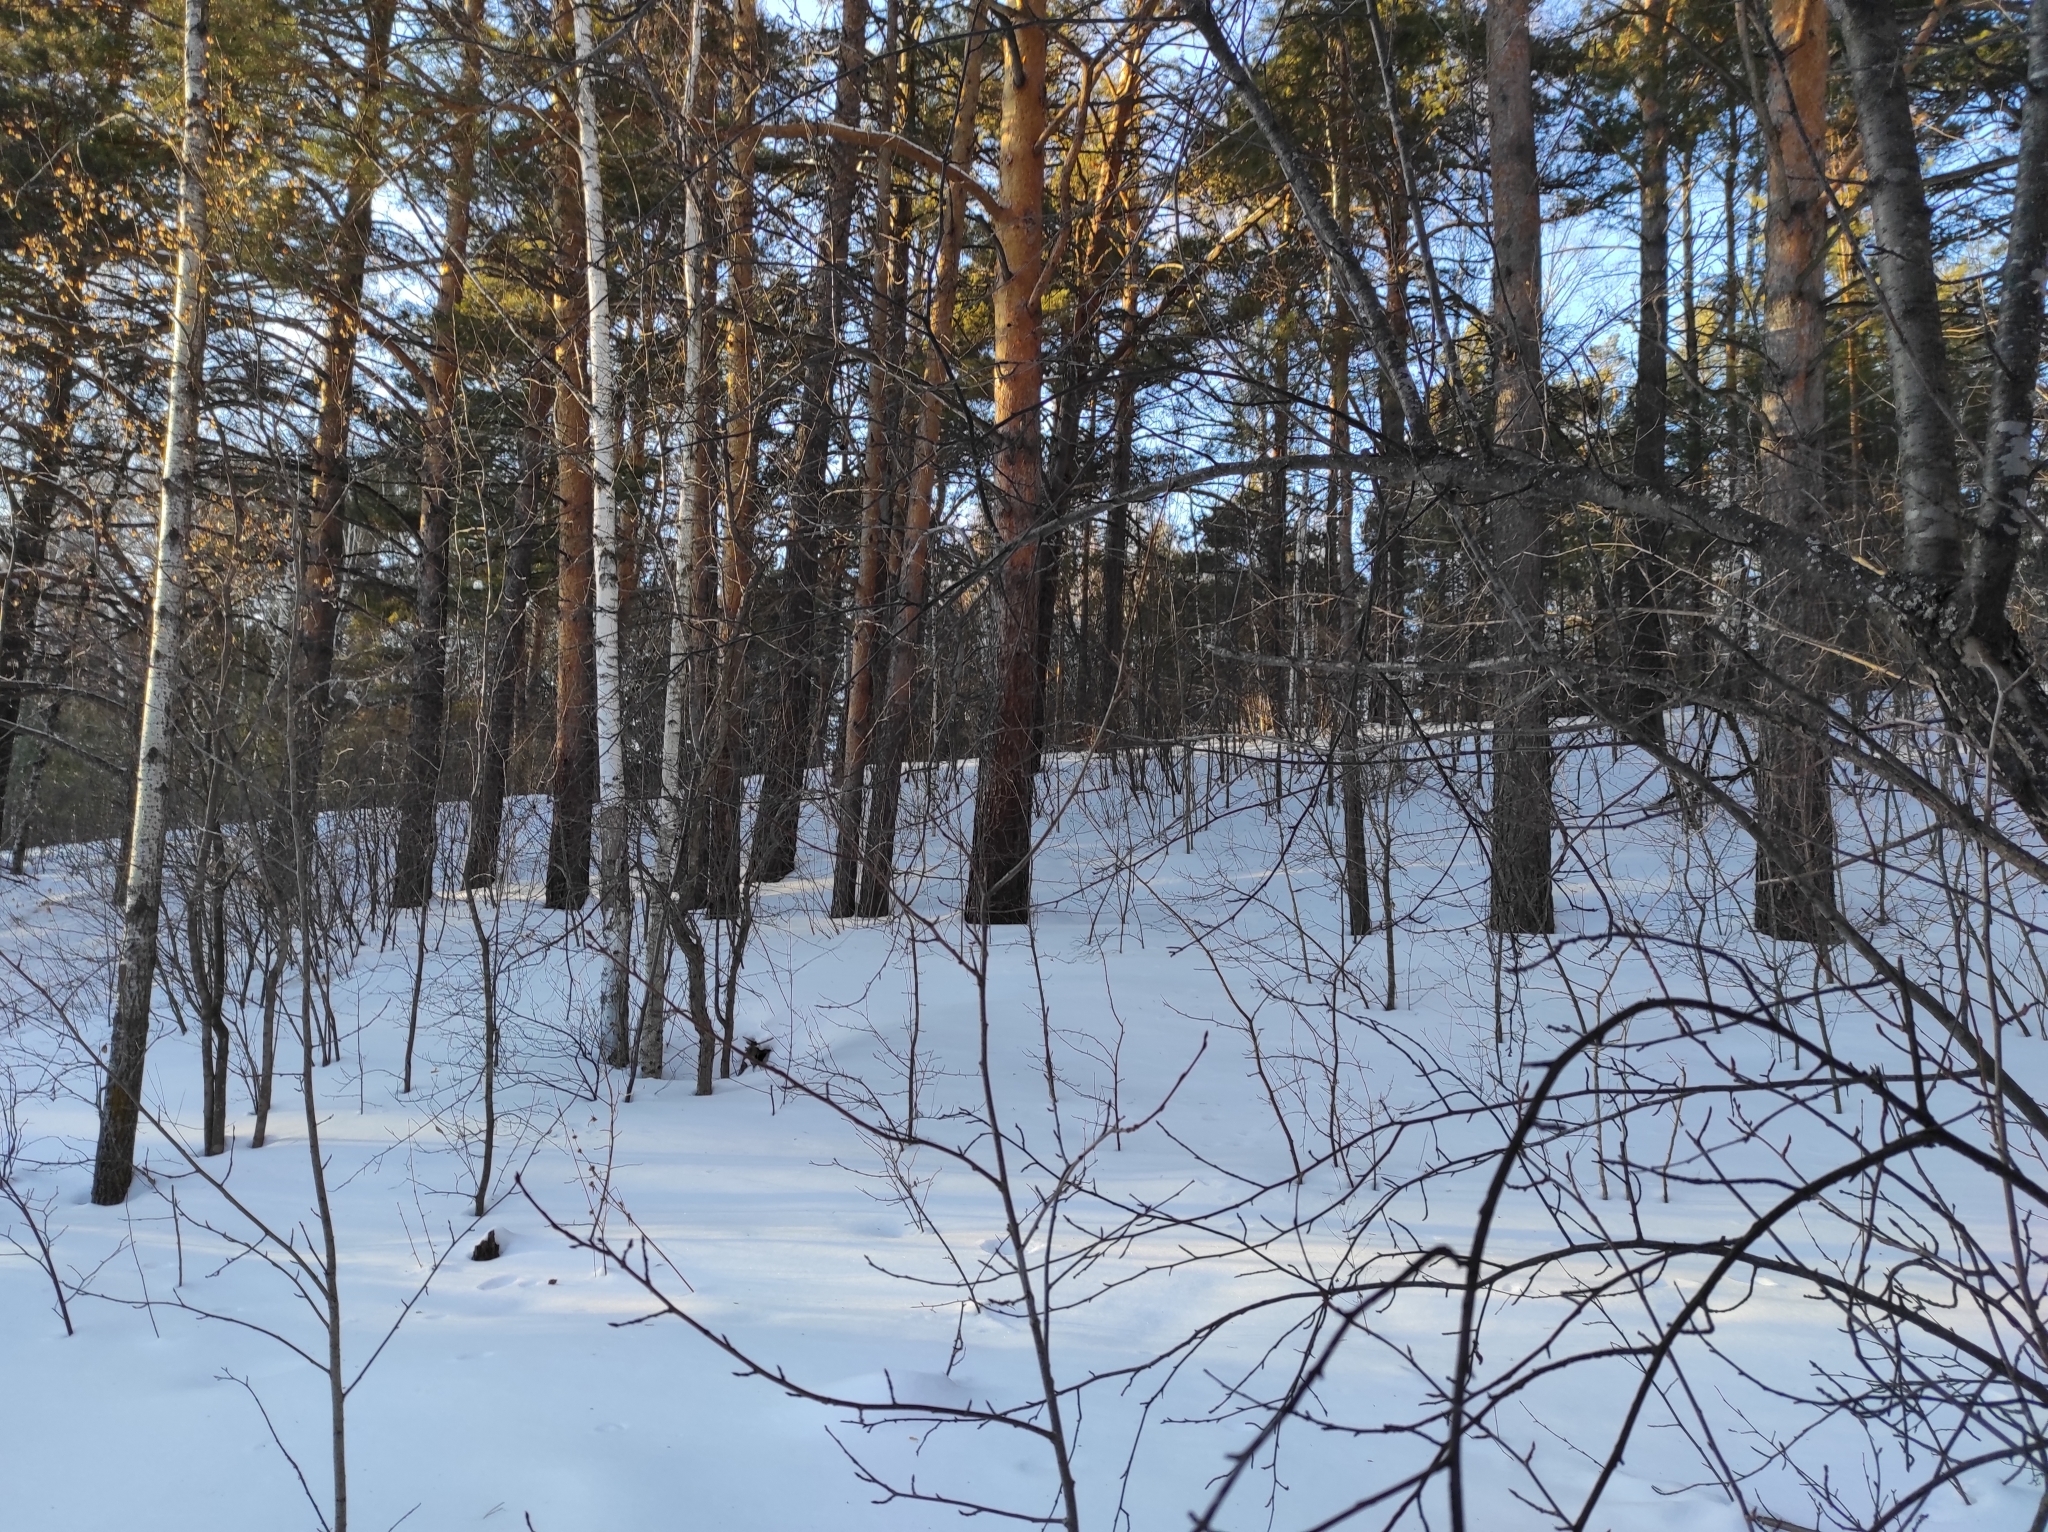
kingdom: Animalia
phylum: Chordata
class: Aves
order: Piciformes
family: Picidae
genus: Dendrocopos
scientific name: Dendrocopos major
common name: Great spotted woodpecker
